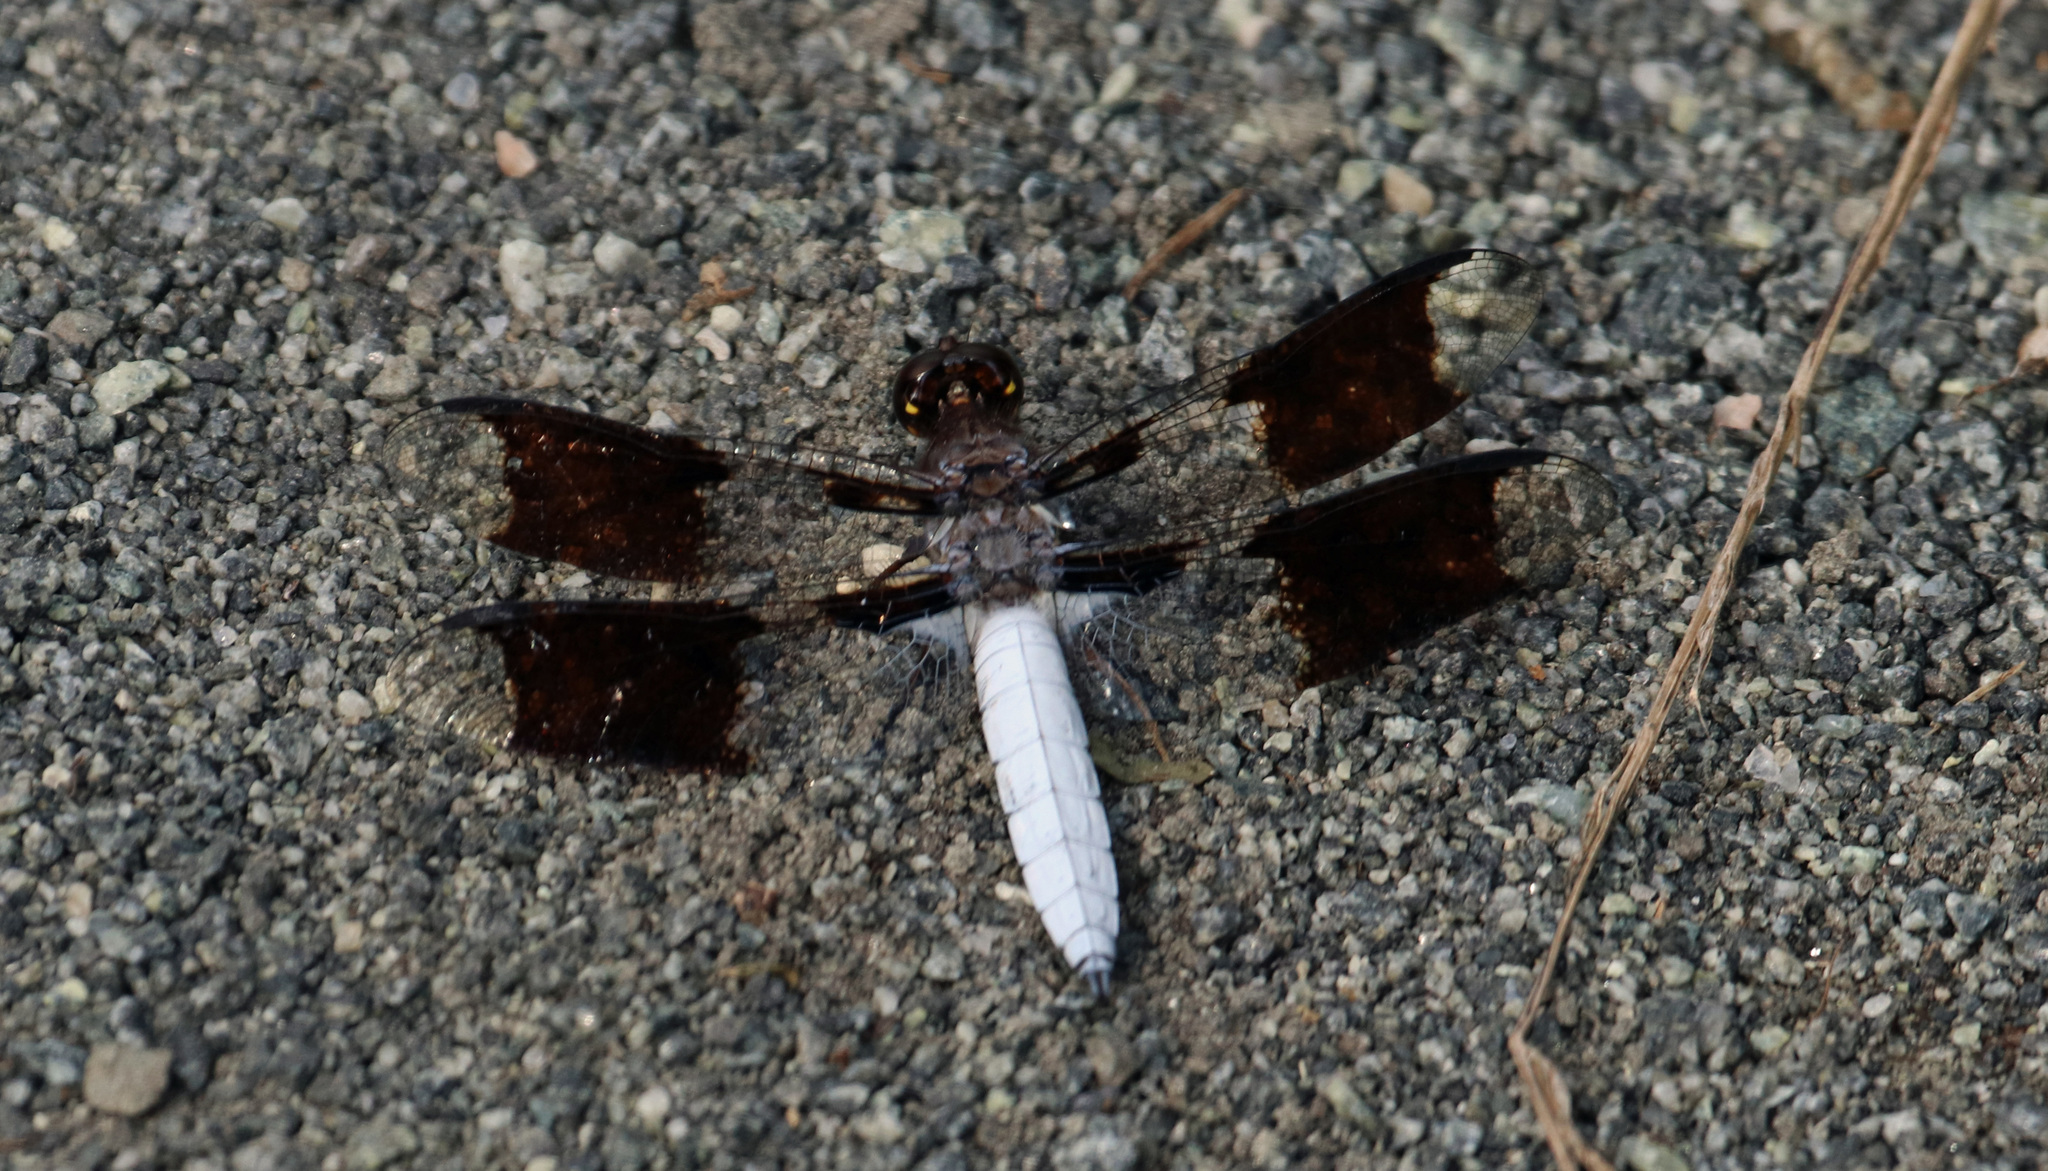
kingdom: Animalia
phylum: Arthropoda
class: Insecta
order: Odonata
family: Libellulidae
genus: Plathemis
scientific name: Plathemis lydia
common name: Common whitetail
